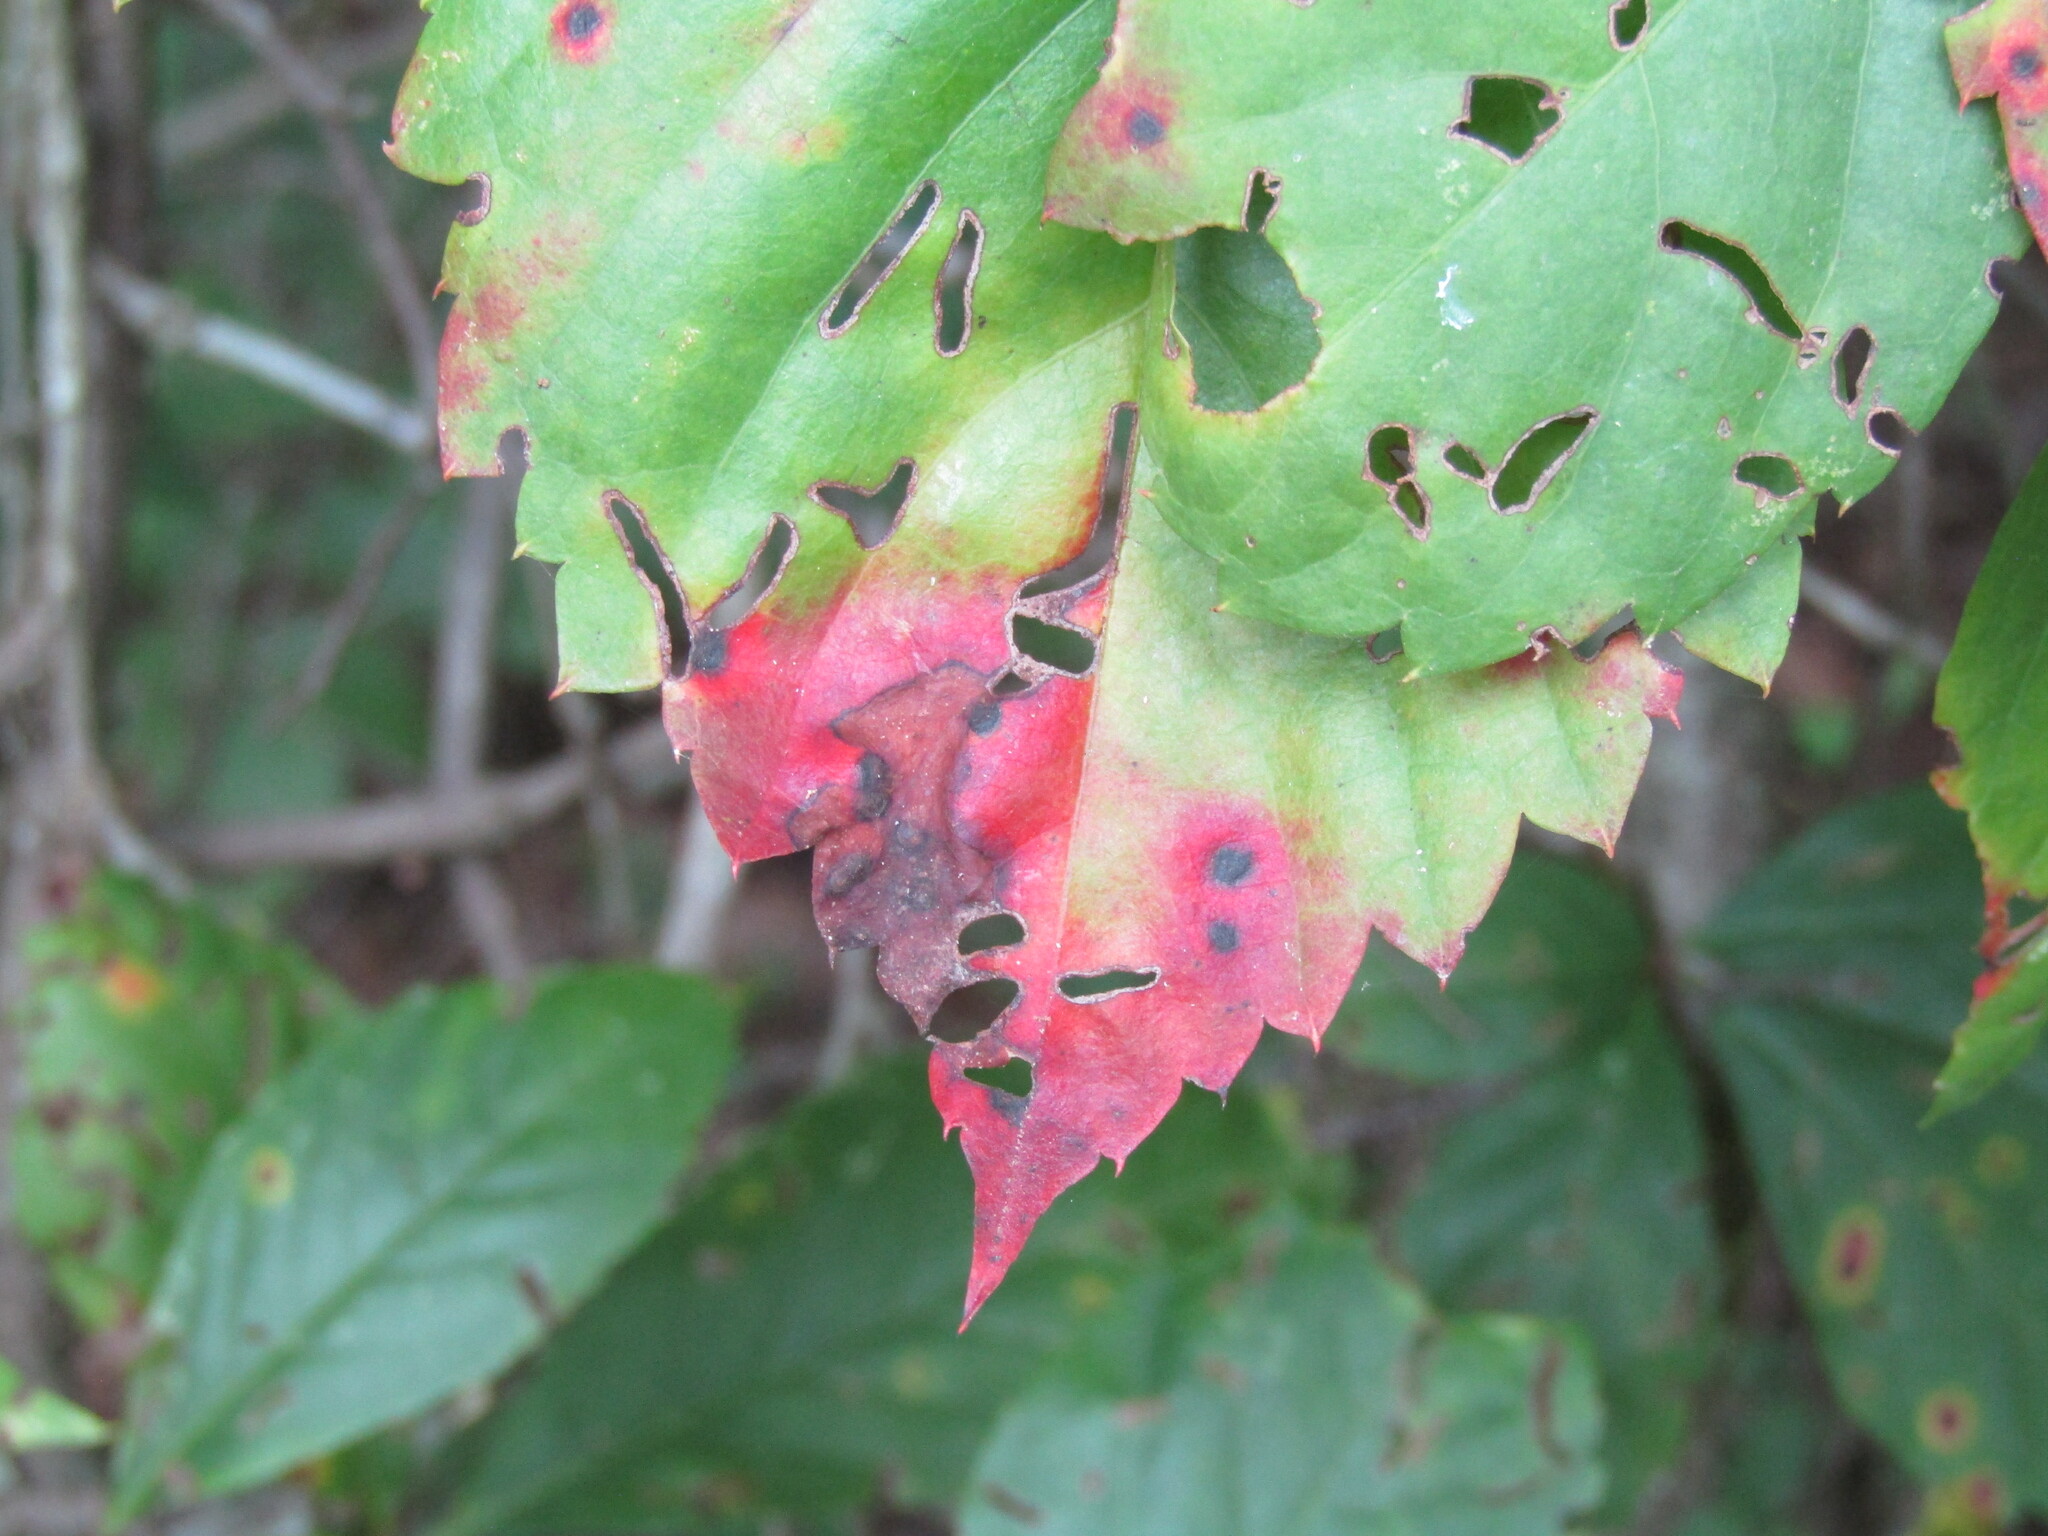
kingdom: Fungi
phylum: Ascomycota
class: Dothideomycetes
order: Botryosphaeriales
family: Phyllostictaceae
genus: Phyllosticta
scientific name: Phyllosticta parthenocissi
